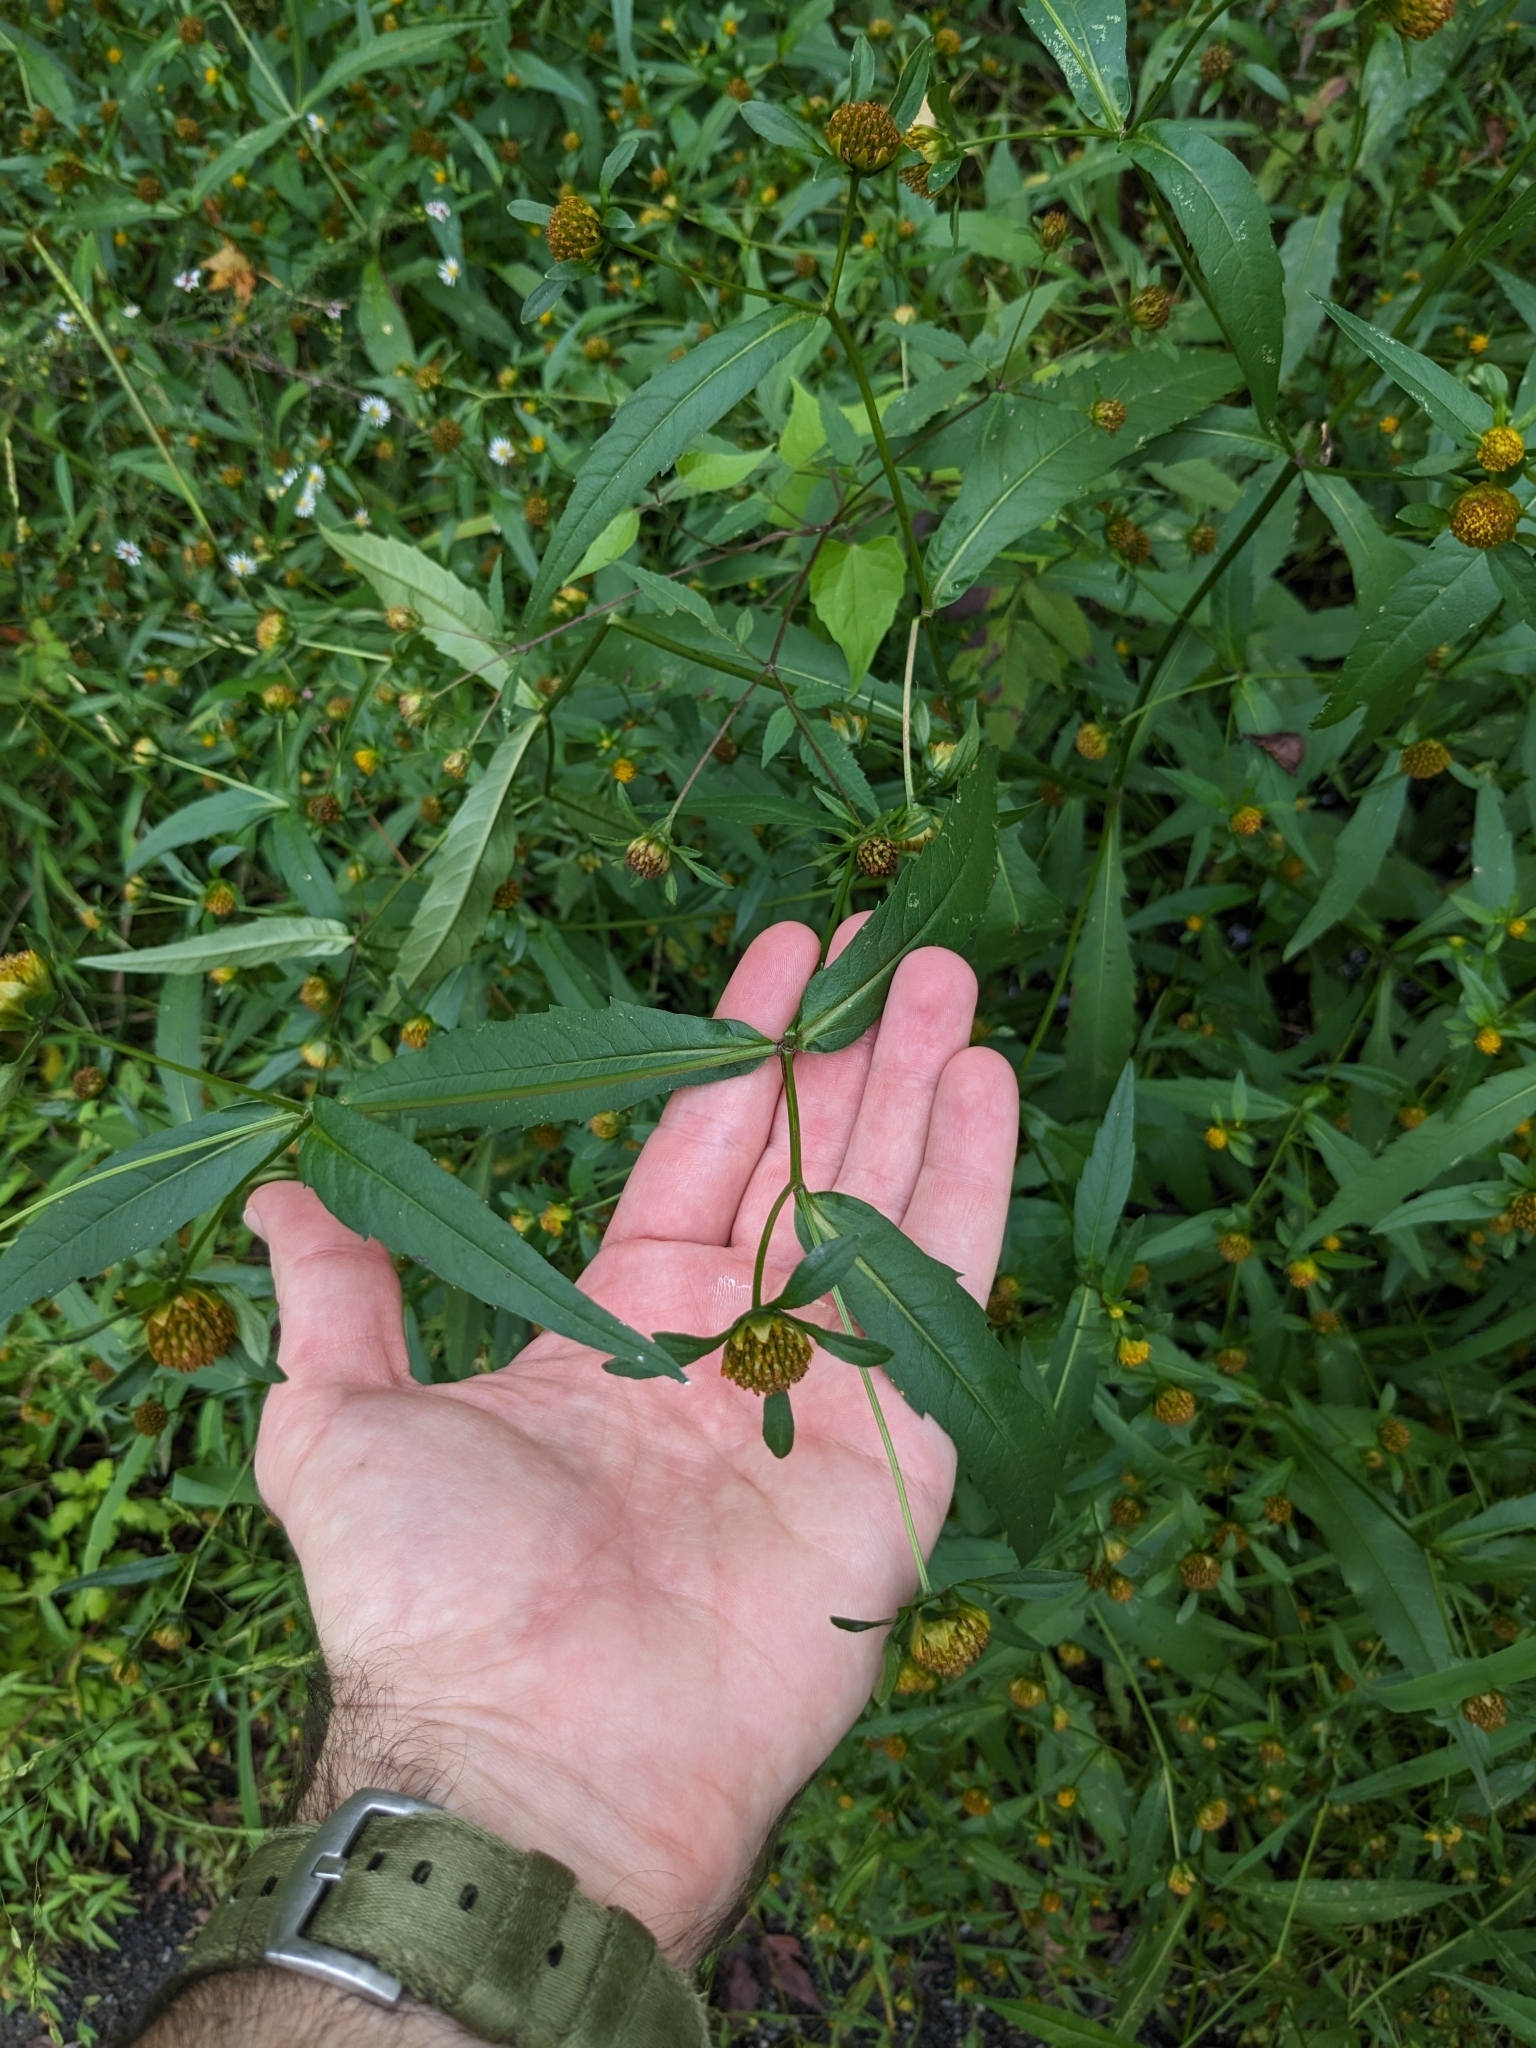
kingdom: Plantae
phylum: Tracheophyta
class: Magnoliopsida
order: Asterales
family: Asteraceae
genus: Bidens
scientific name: Bidens connata
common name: London bur-marigold
